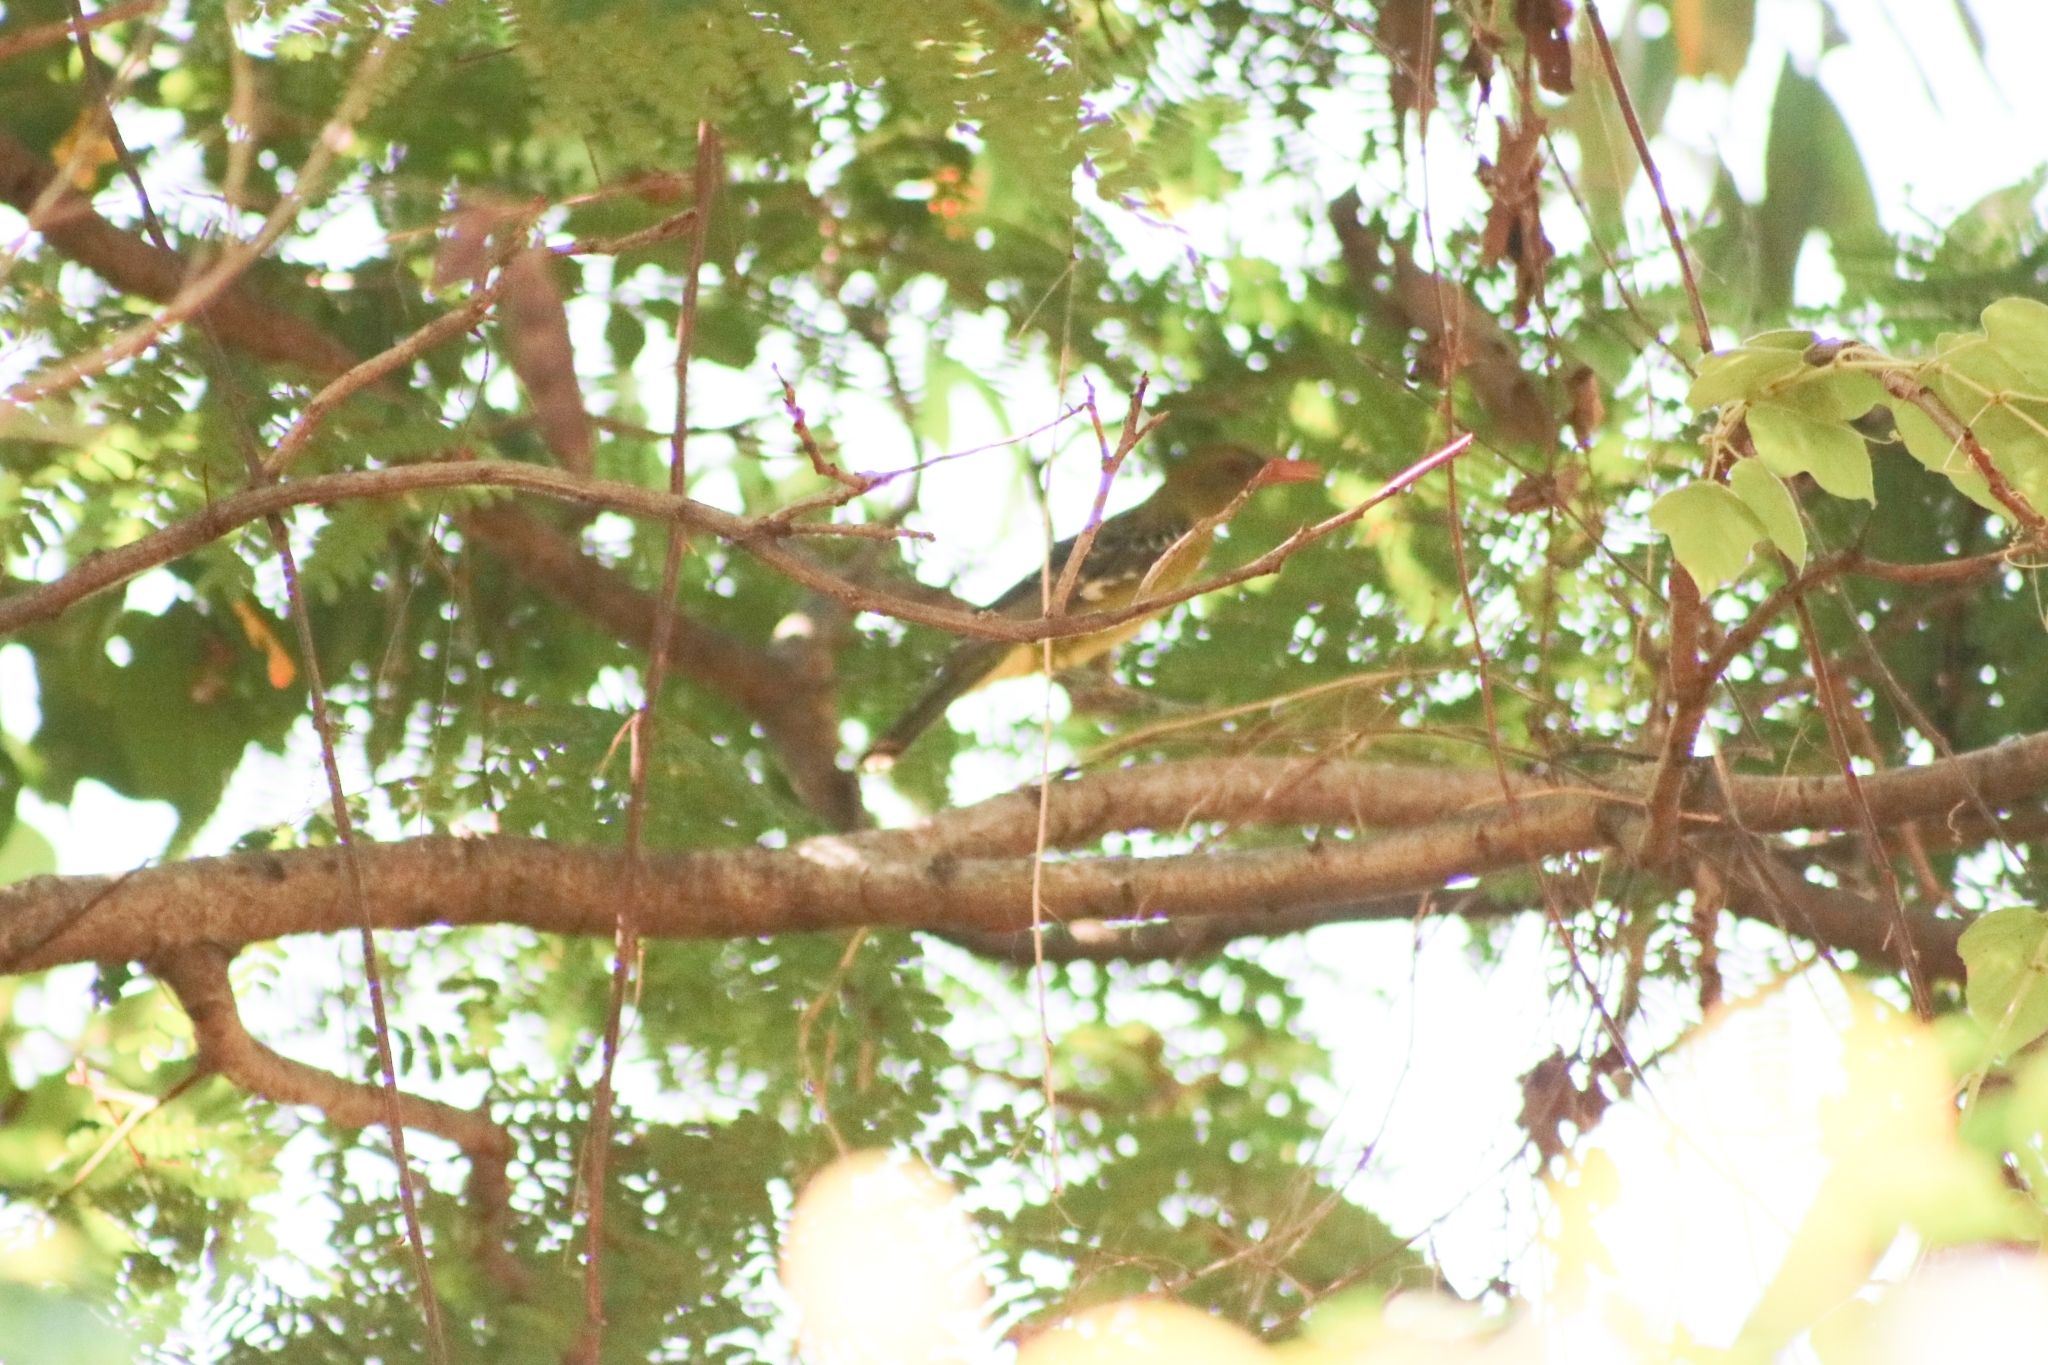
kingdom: Animalia
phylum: Chordata
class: Aves
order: Passeriformes
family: Oriolidae
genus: Oriolus
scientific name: Oriolus flavocinctus
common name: Green oriole
